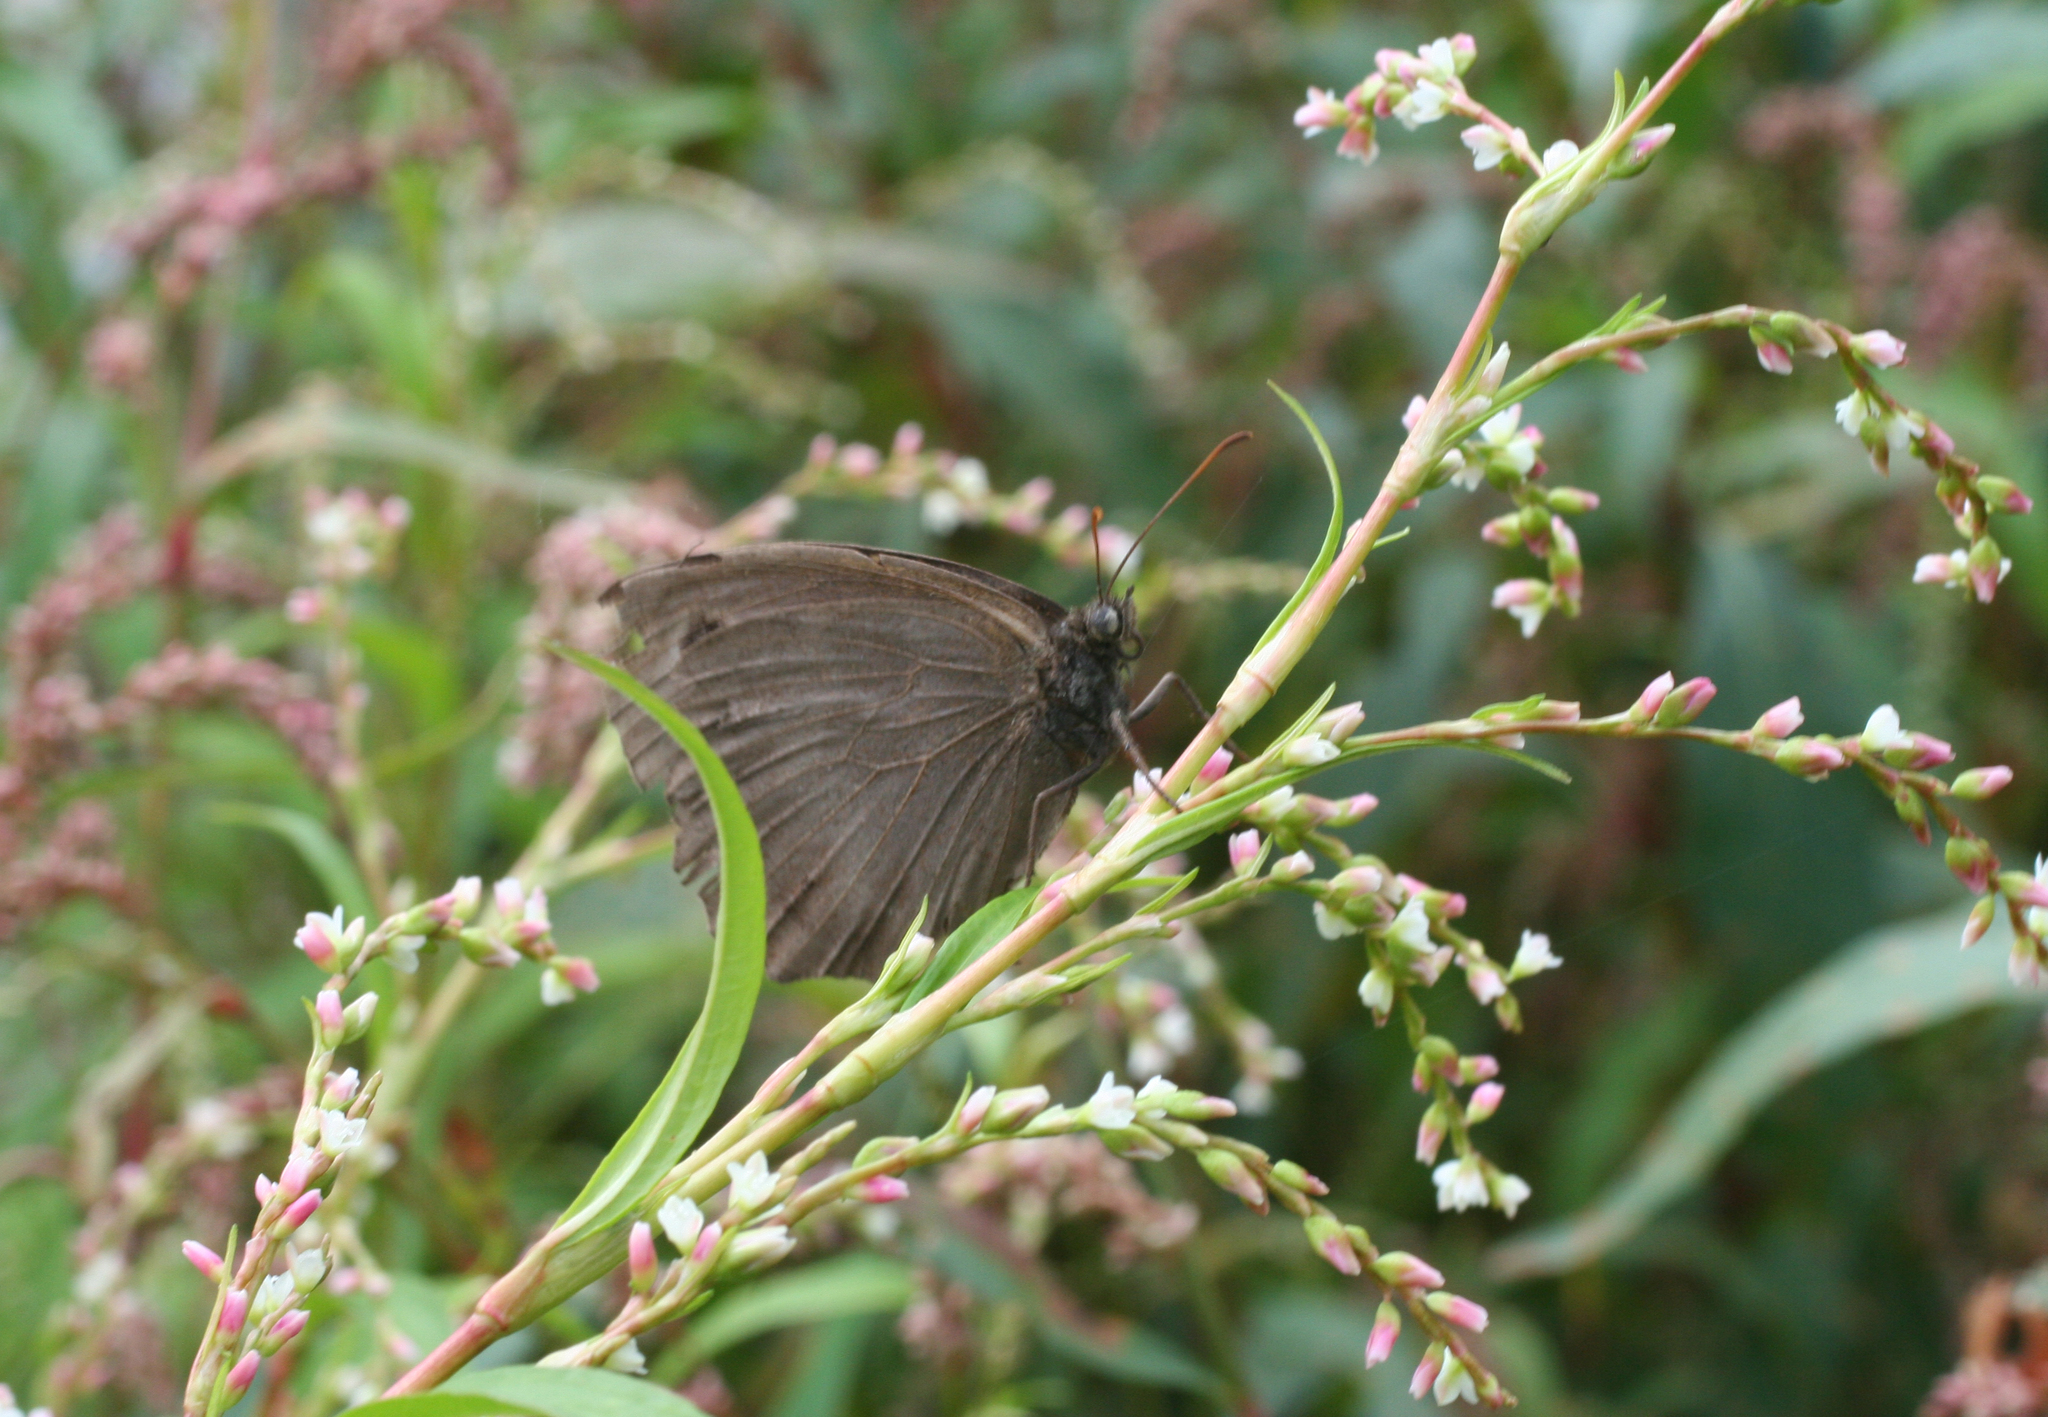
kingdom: Plantae
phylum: Tracheophyta
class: Magnoliopsida
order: Caryophyllales
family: Polygonaceae
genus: Persicaria
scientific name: Persicaria hydropiper
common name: Water-pepper
